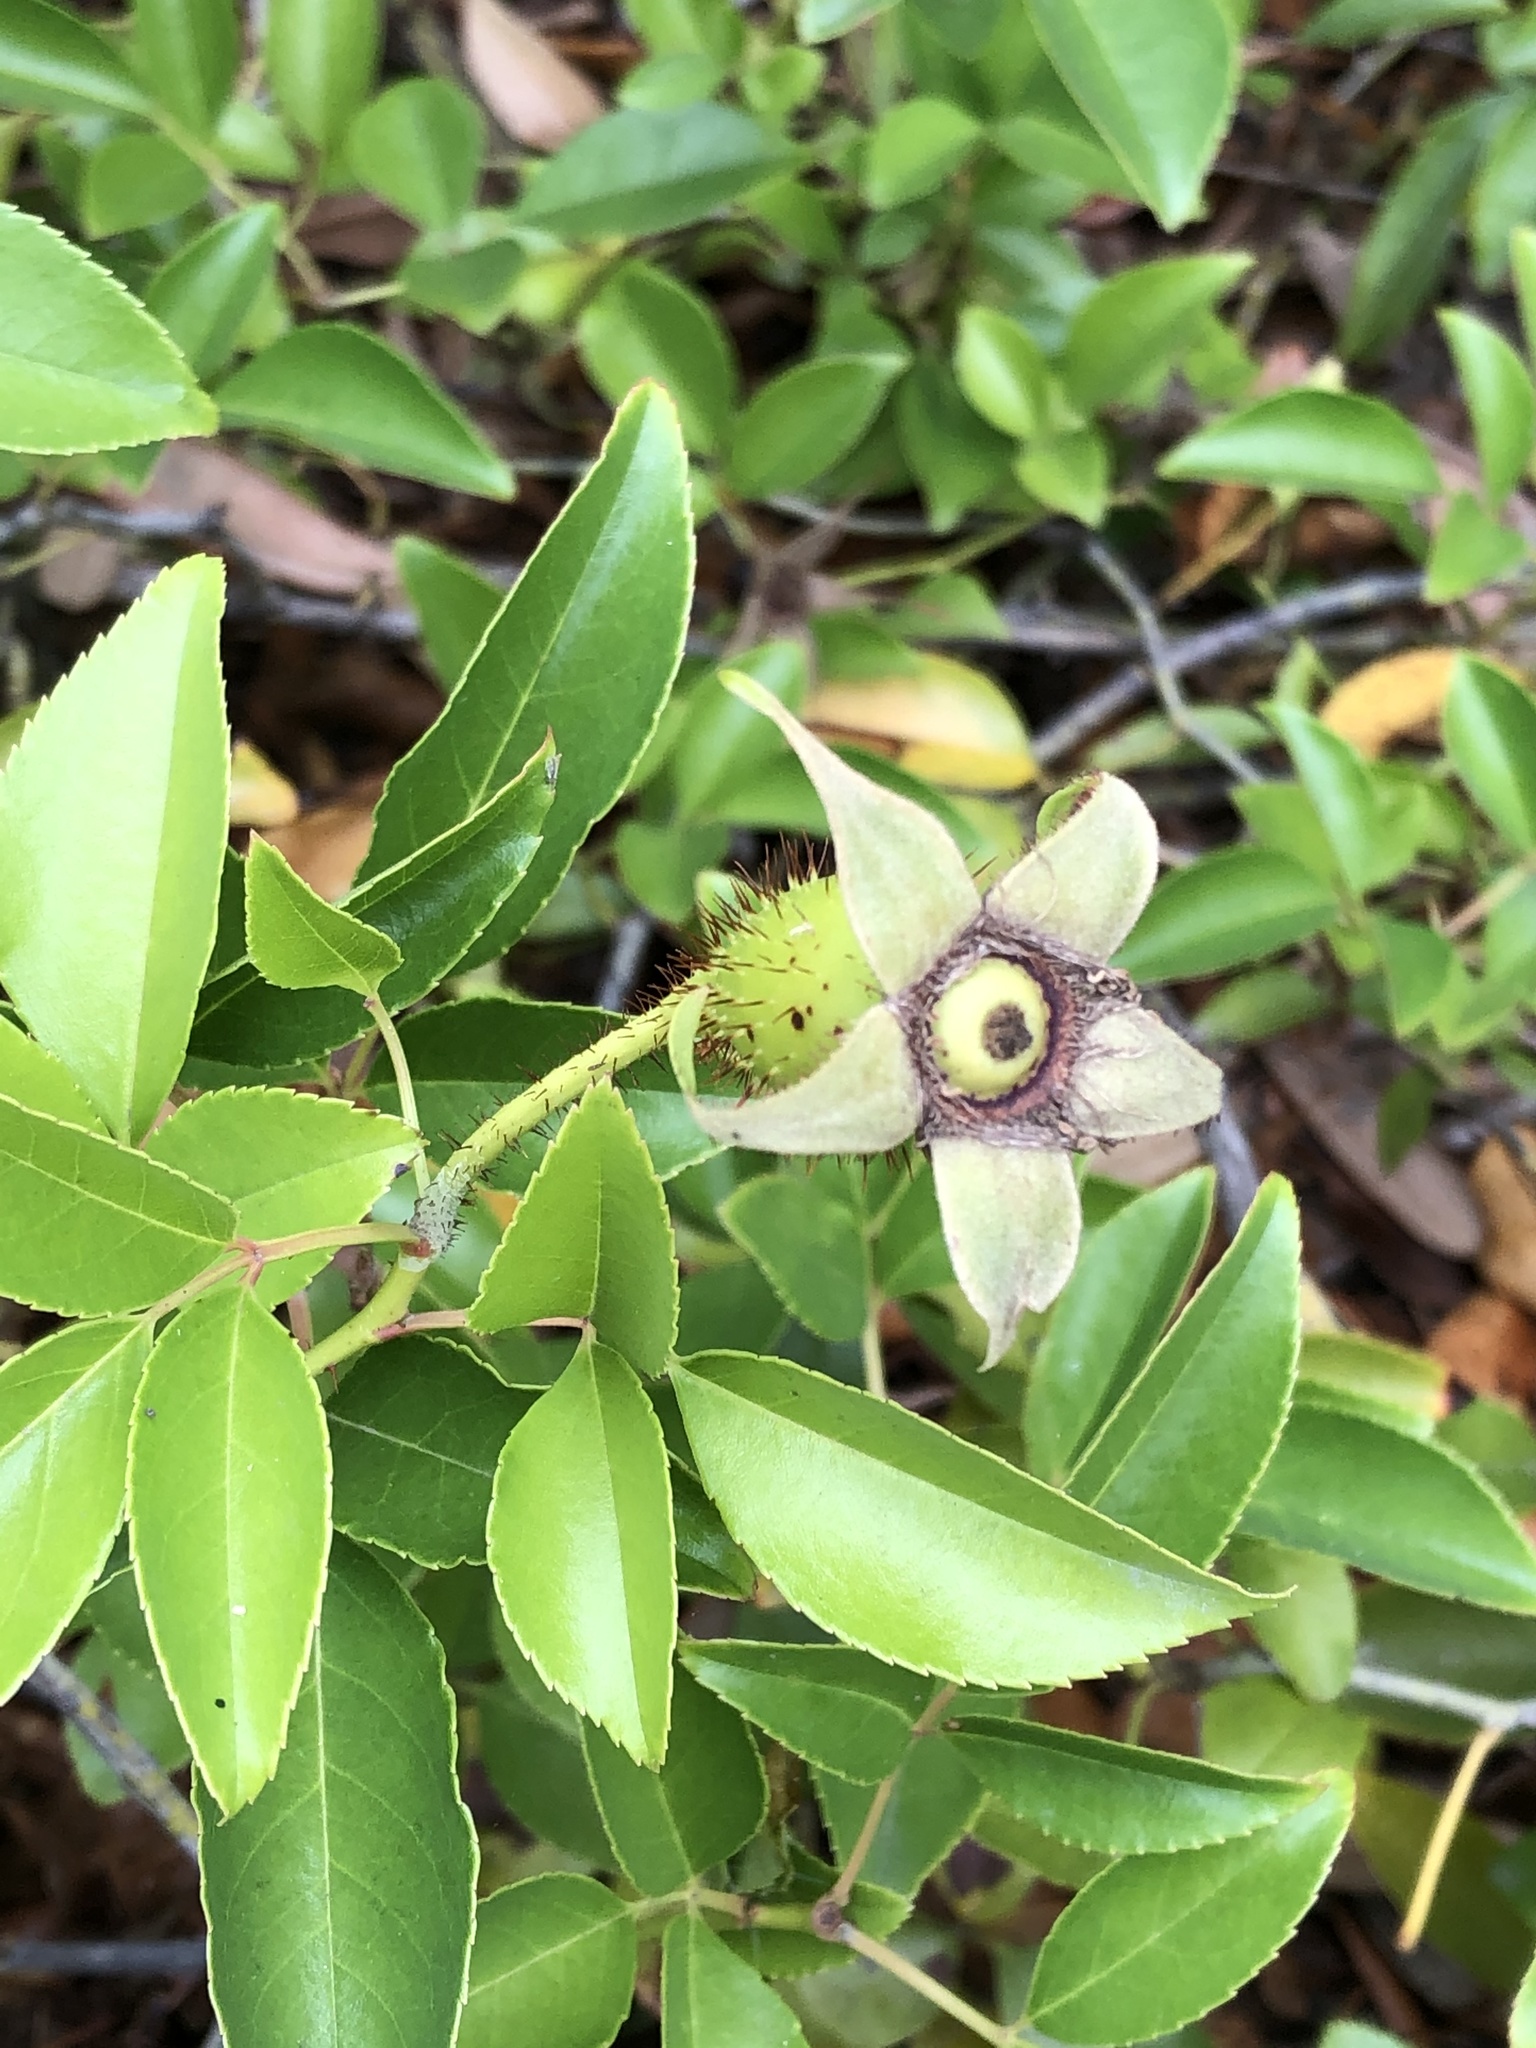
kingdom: Plantae
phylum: Tracheophyta
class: Magnoliopsida
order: Rosales
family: Rosaceae
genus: Rosa
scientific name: Rosa laevigata
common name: Cherokee rose
